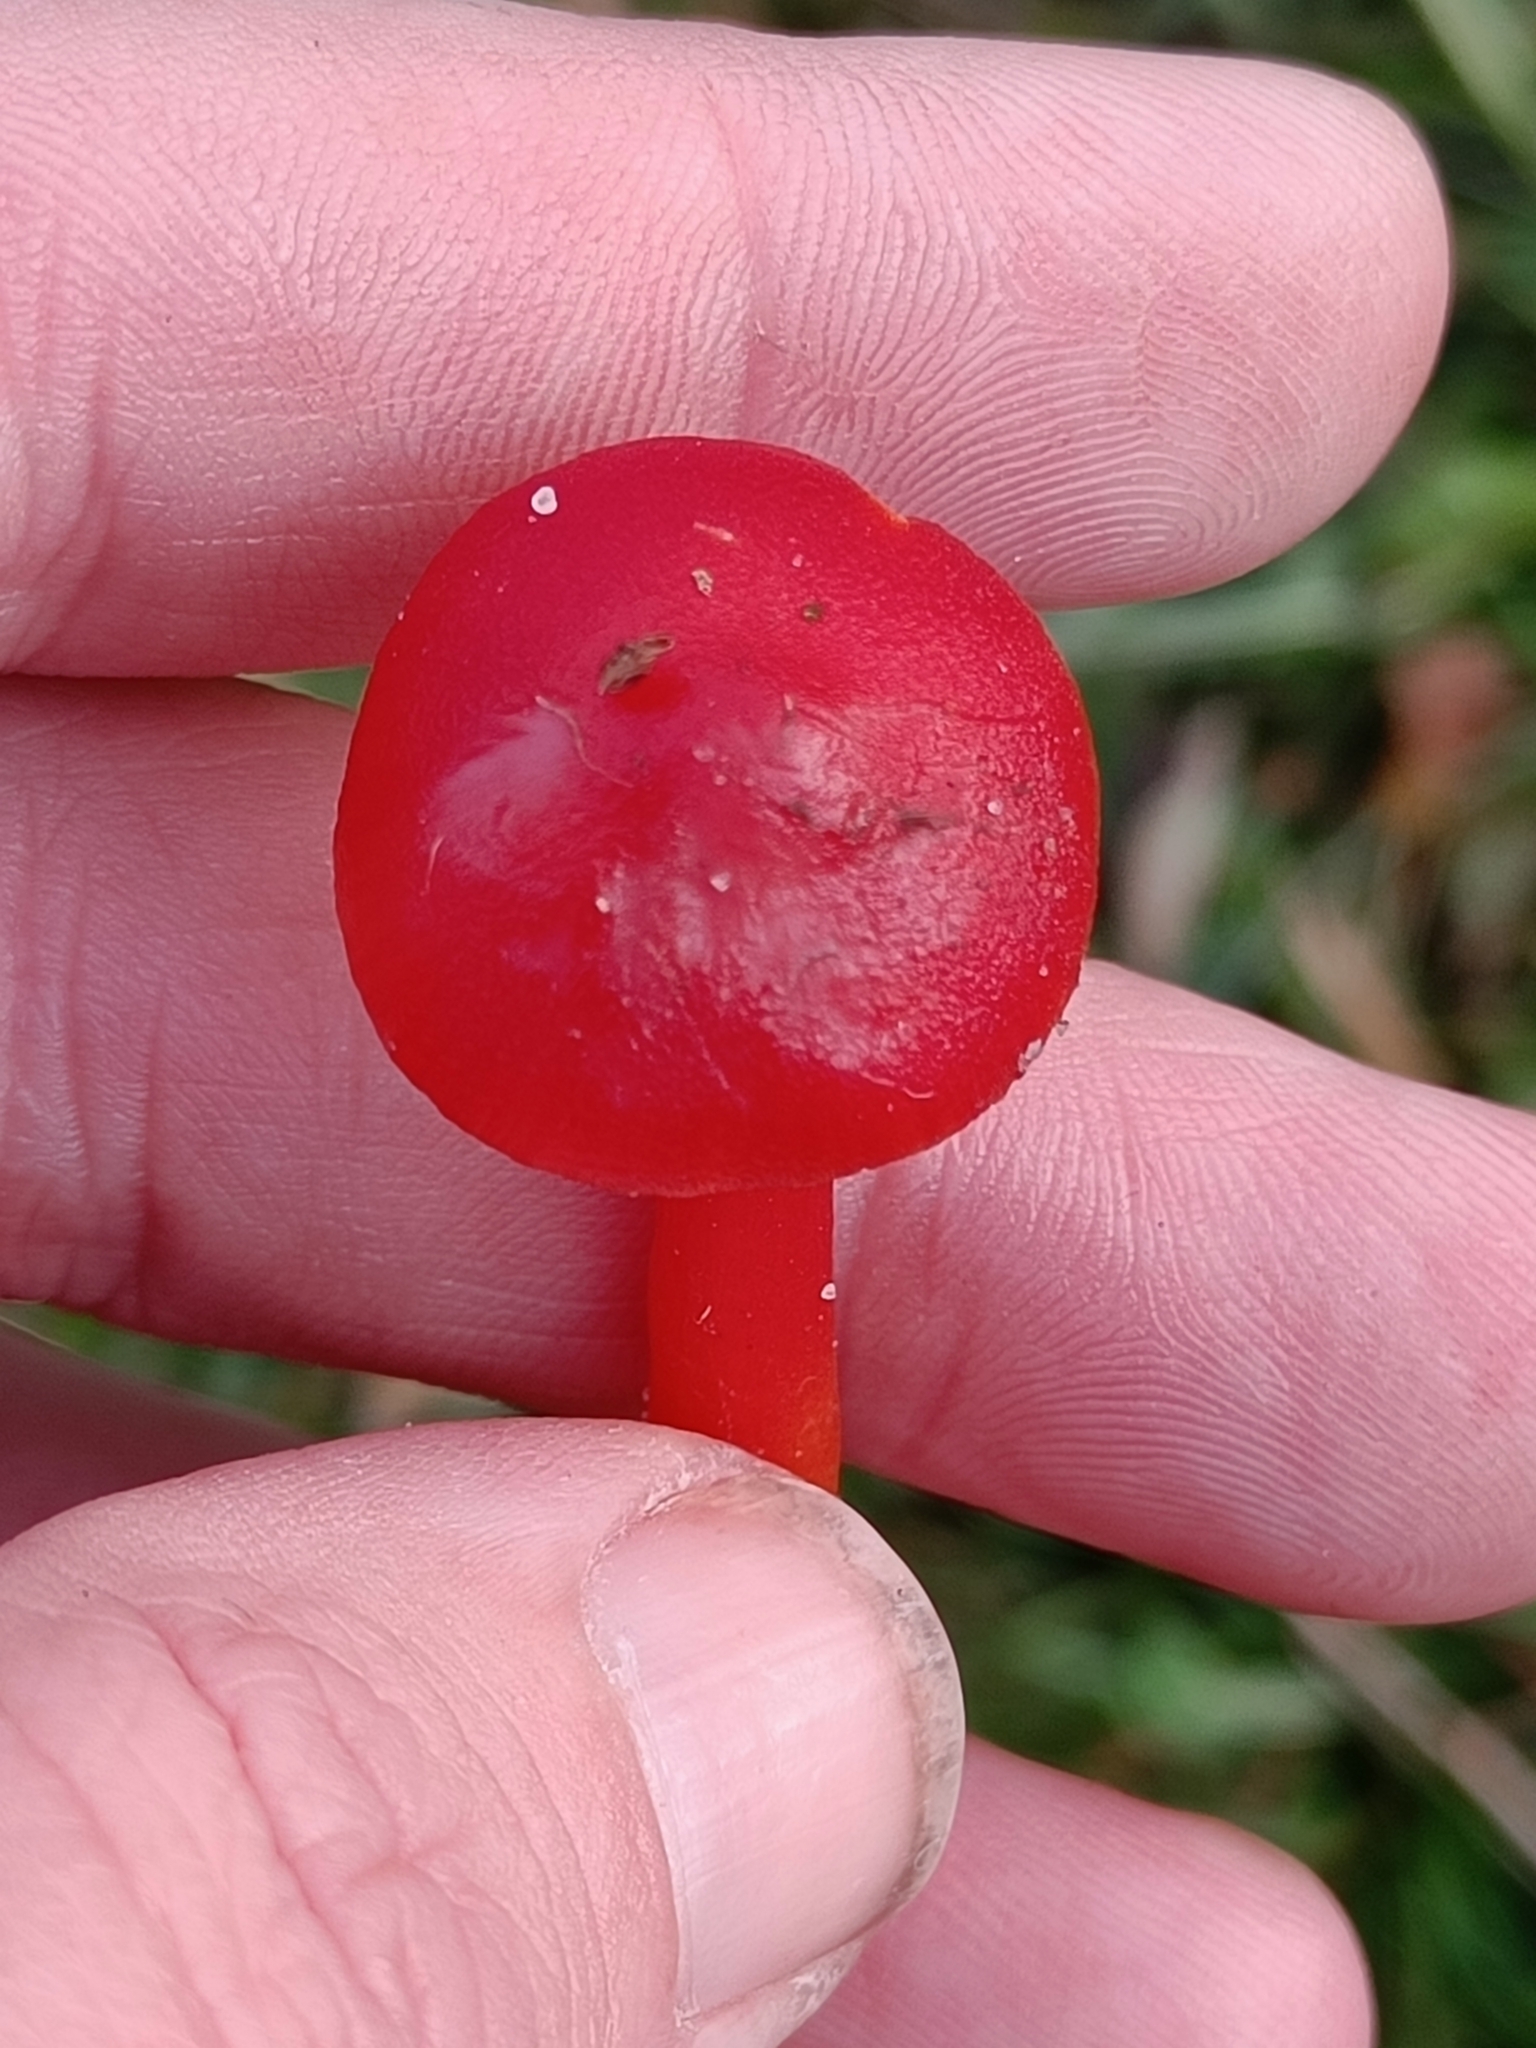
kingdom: Fungi
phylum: Basidiomycota
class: Agaricomycetes
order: Agaricales
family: Hygrophoraceae
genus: Hygrocybe
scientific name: Hygrocybe coccinea
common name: Scarlet hood
